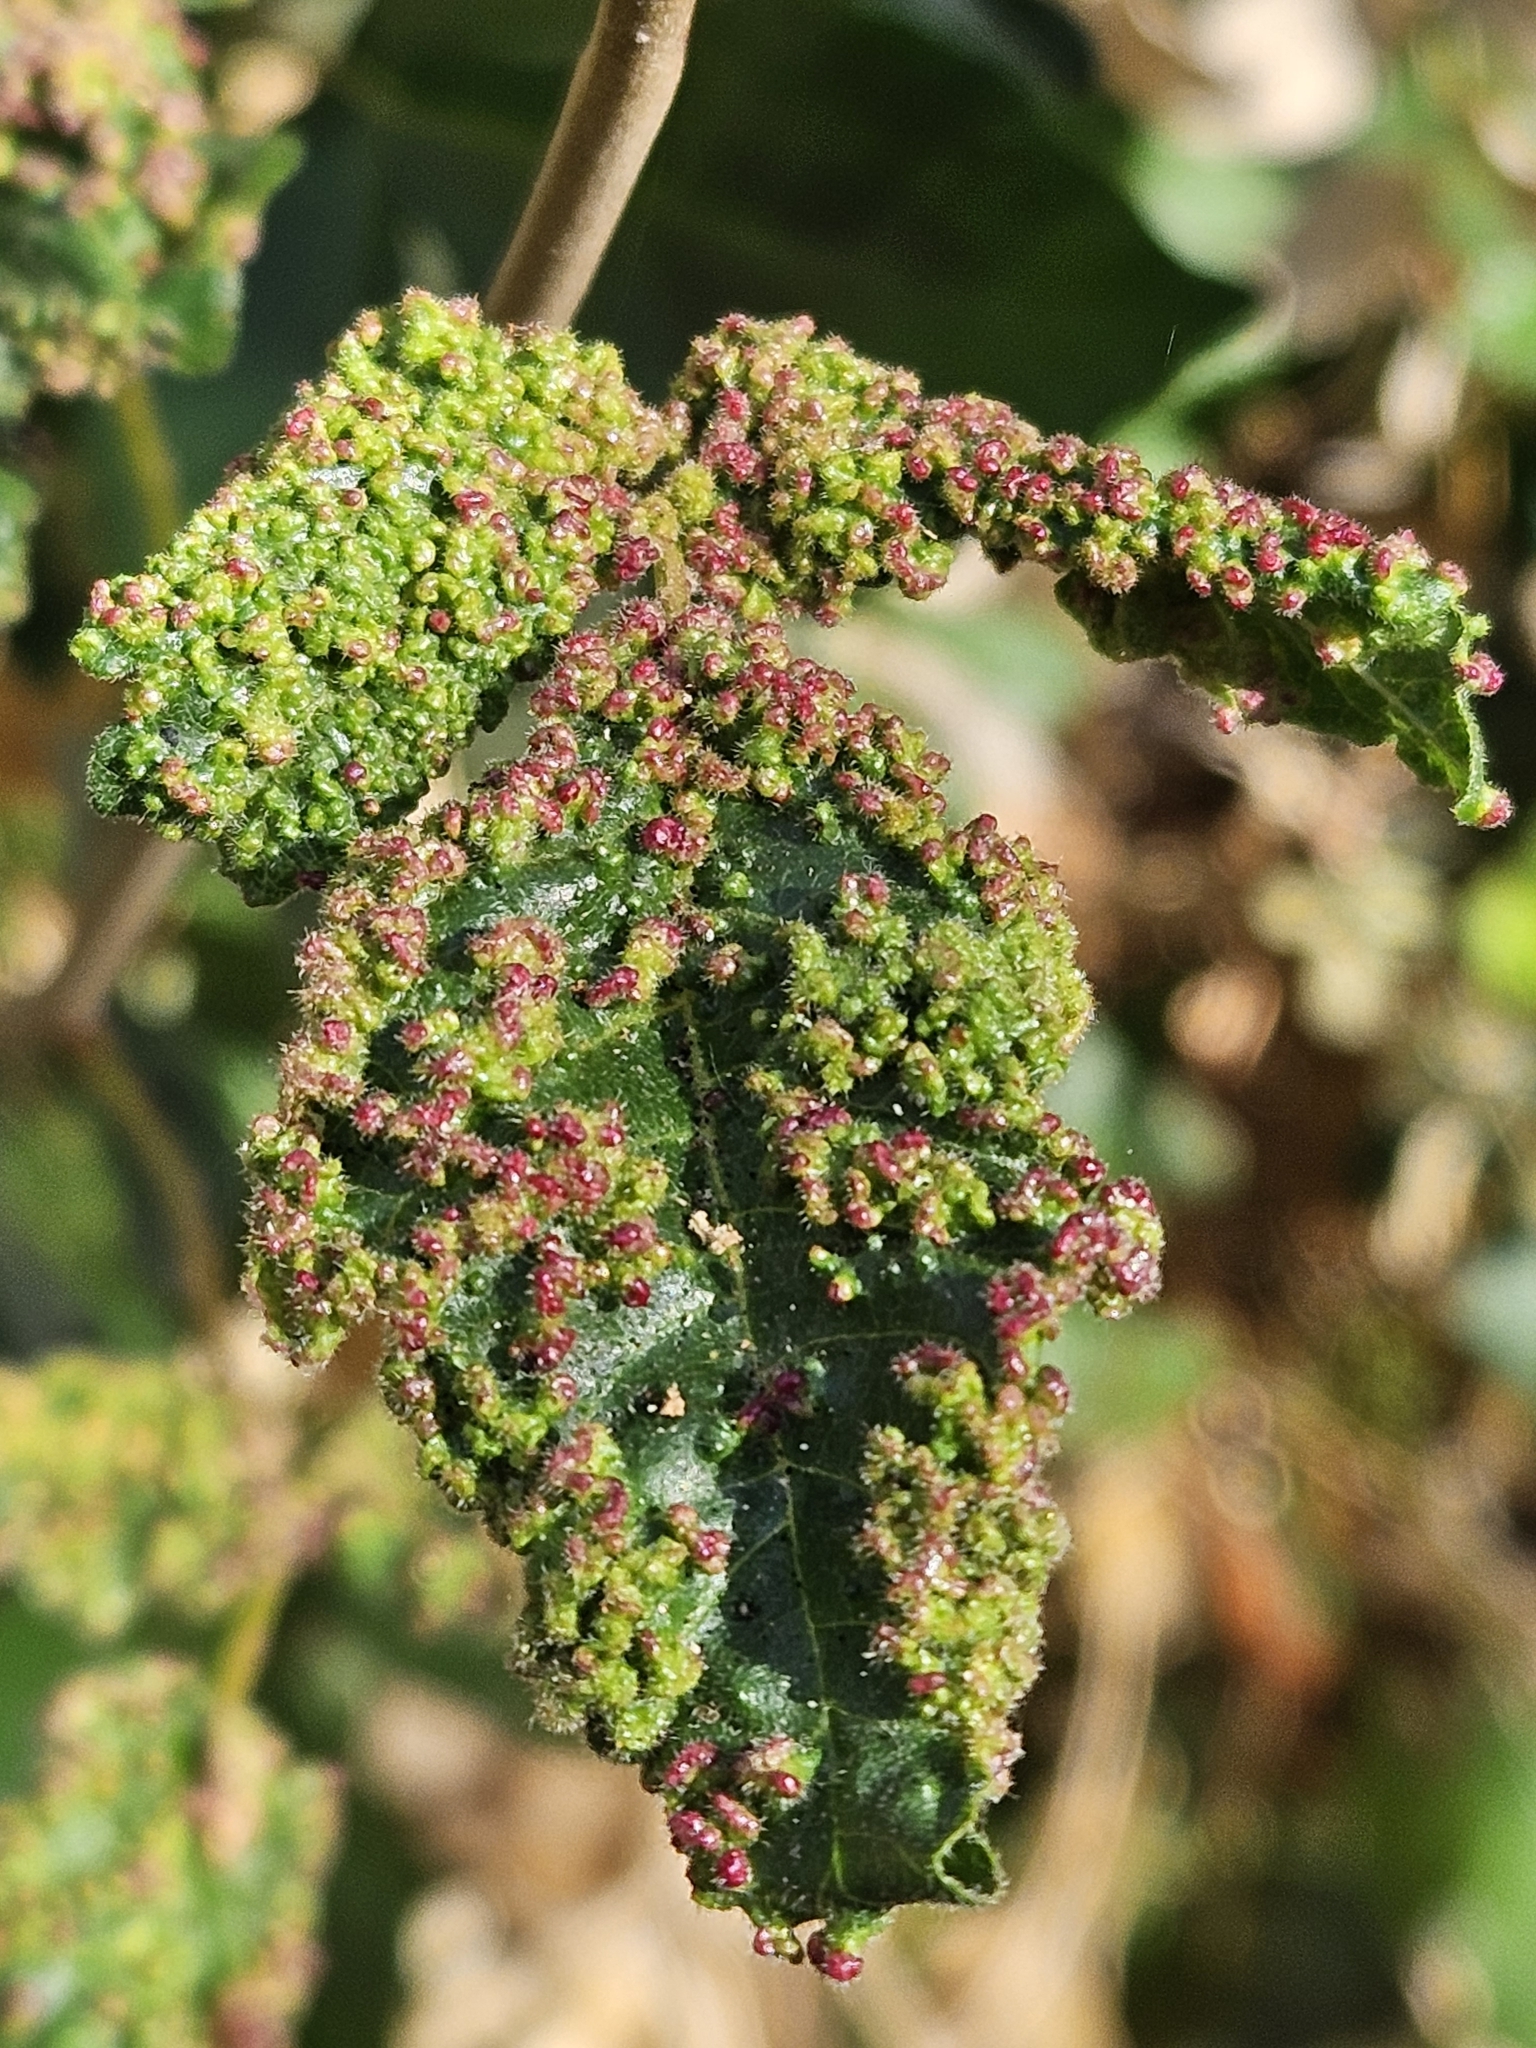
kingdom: Animalia
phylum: Arthropoda
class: Arachnida
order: Trombidiformes
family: Eriophyidae
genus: Aculops
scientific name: Aculops
